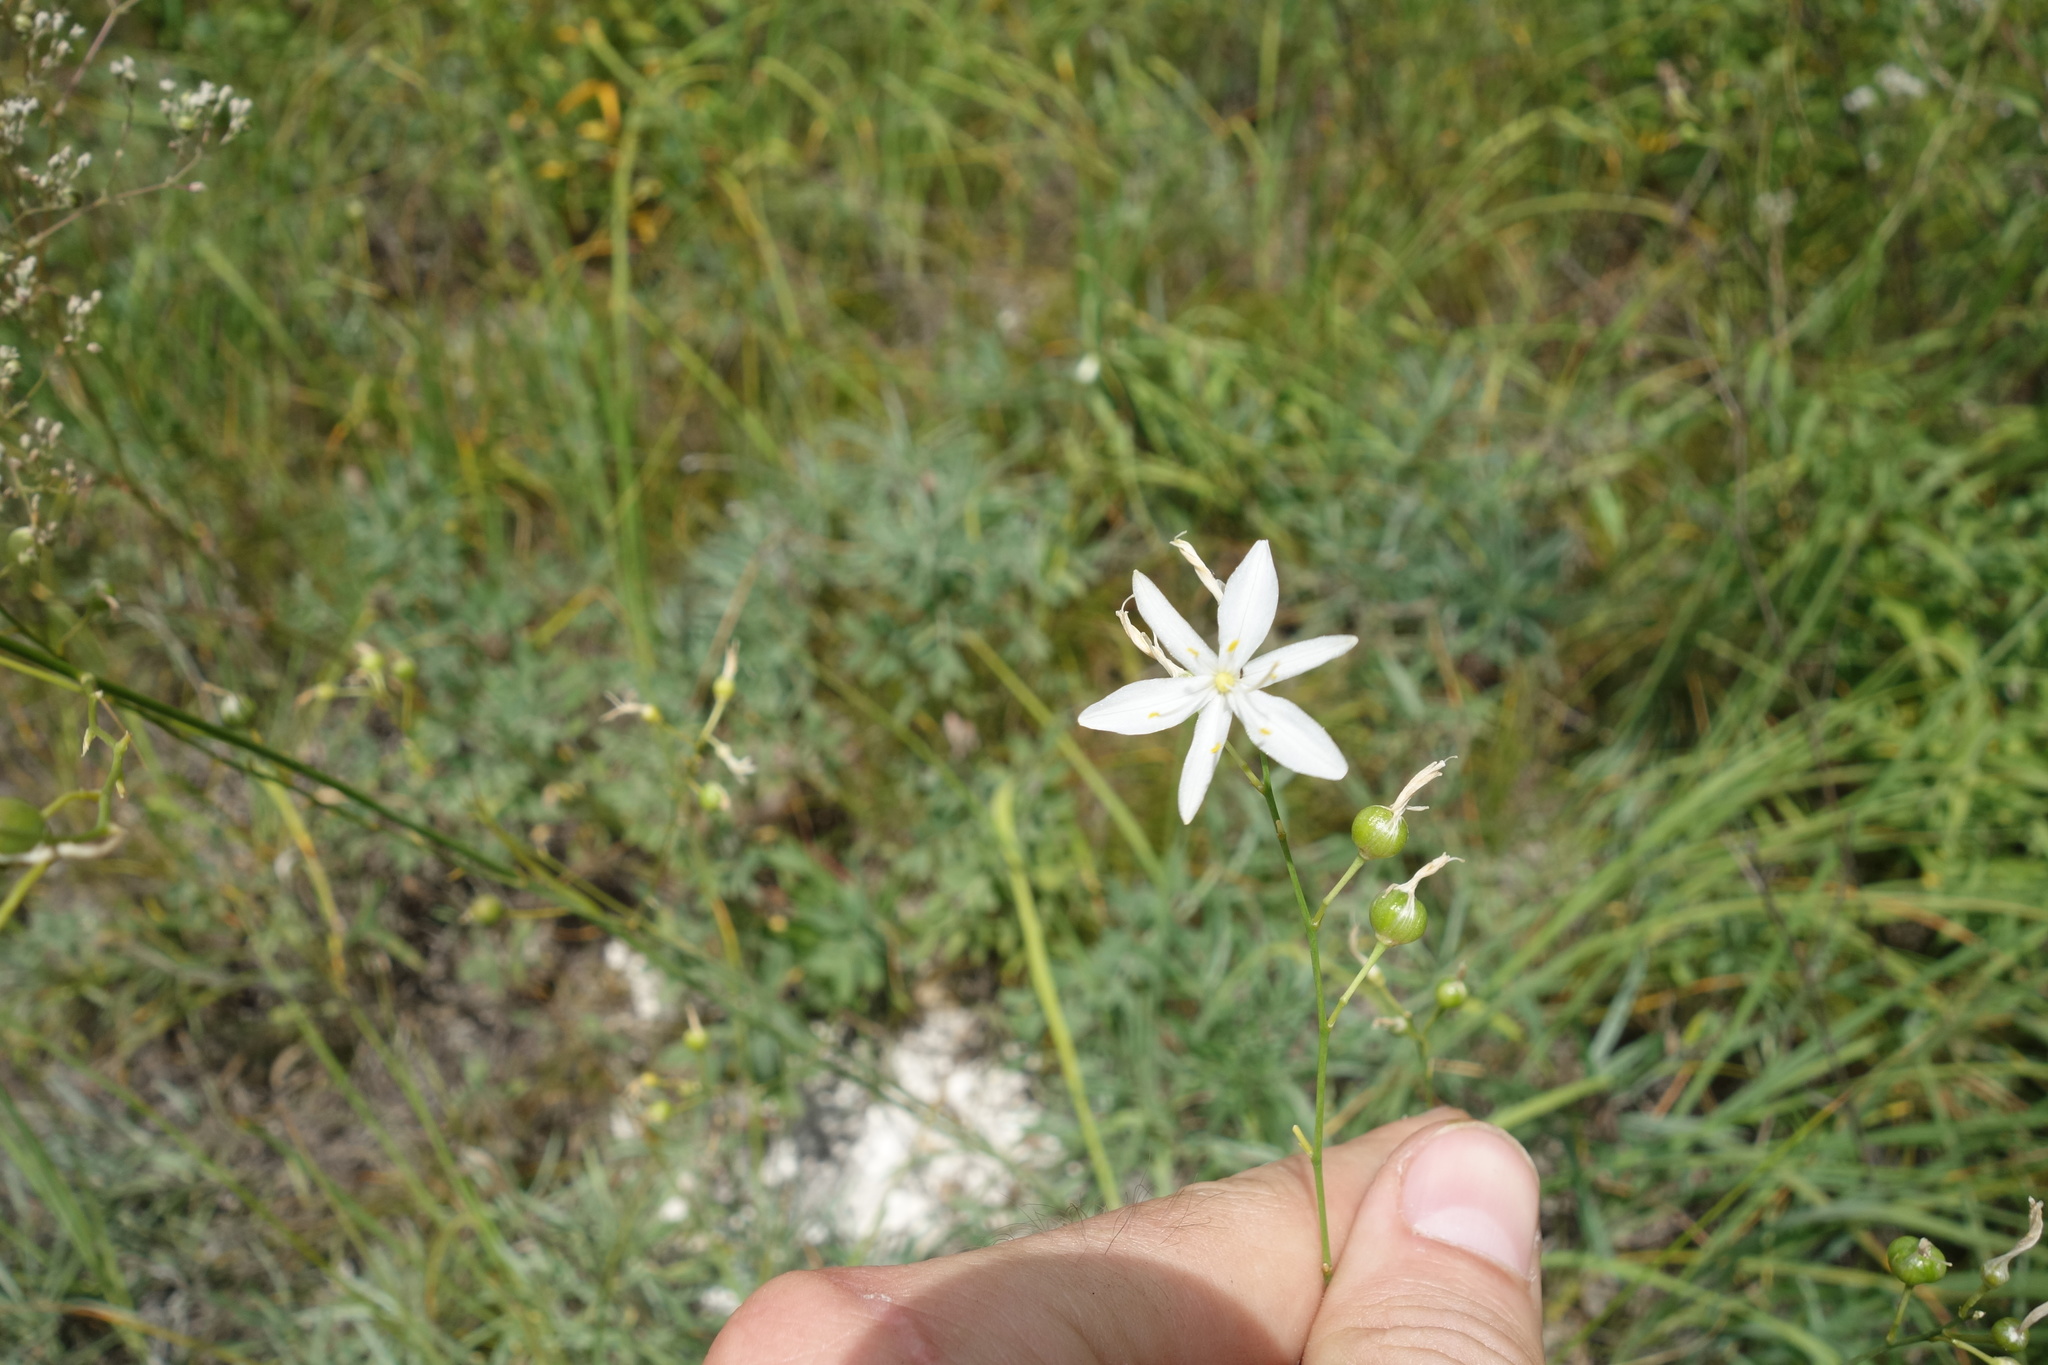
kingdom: Plantae
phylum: Tracheophyta
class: Liliopsida
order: Asparagales
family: Asparagaceae
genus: Anthericum
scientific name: Anthericum ramosum
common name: Branched st. bernard's-lily
